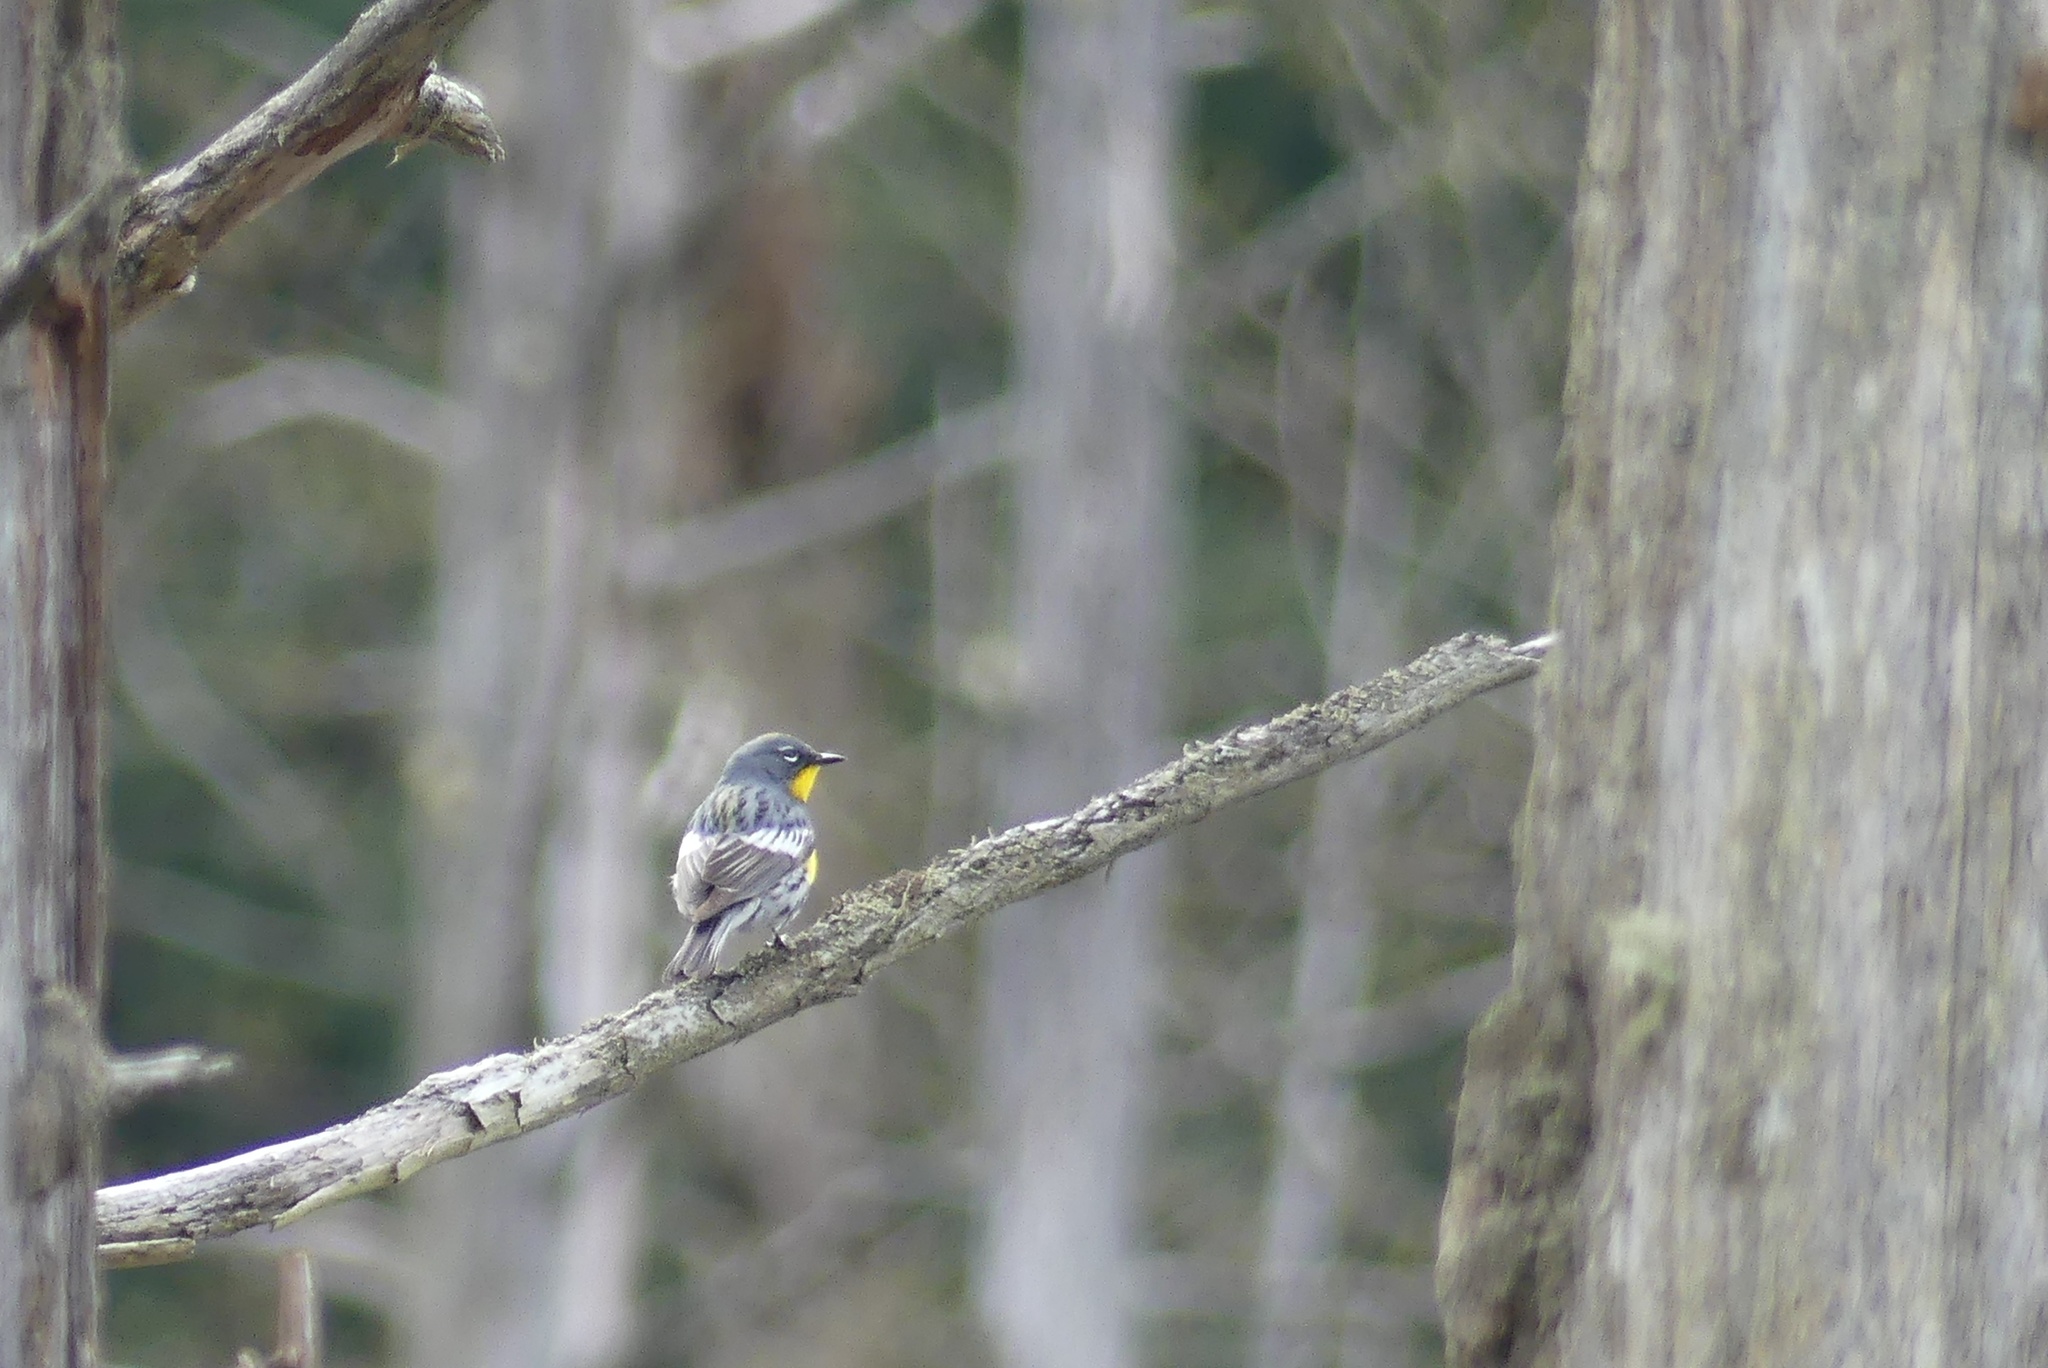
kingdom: Animalia
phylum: Chordata
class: Aves
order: Passeriformes
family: Parulidae
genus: Setophaga
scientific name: Setophaga coronata
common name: Myrtle warbler
